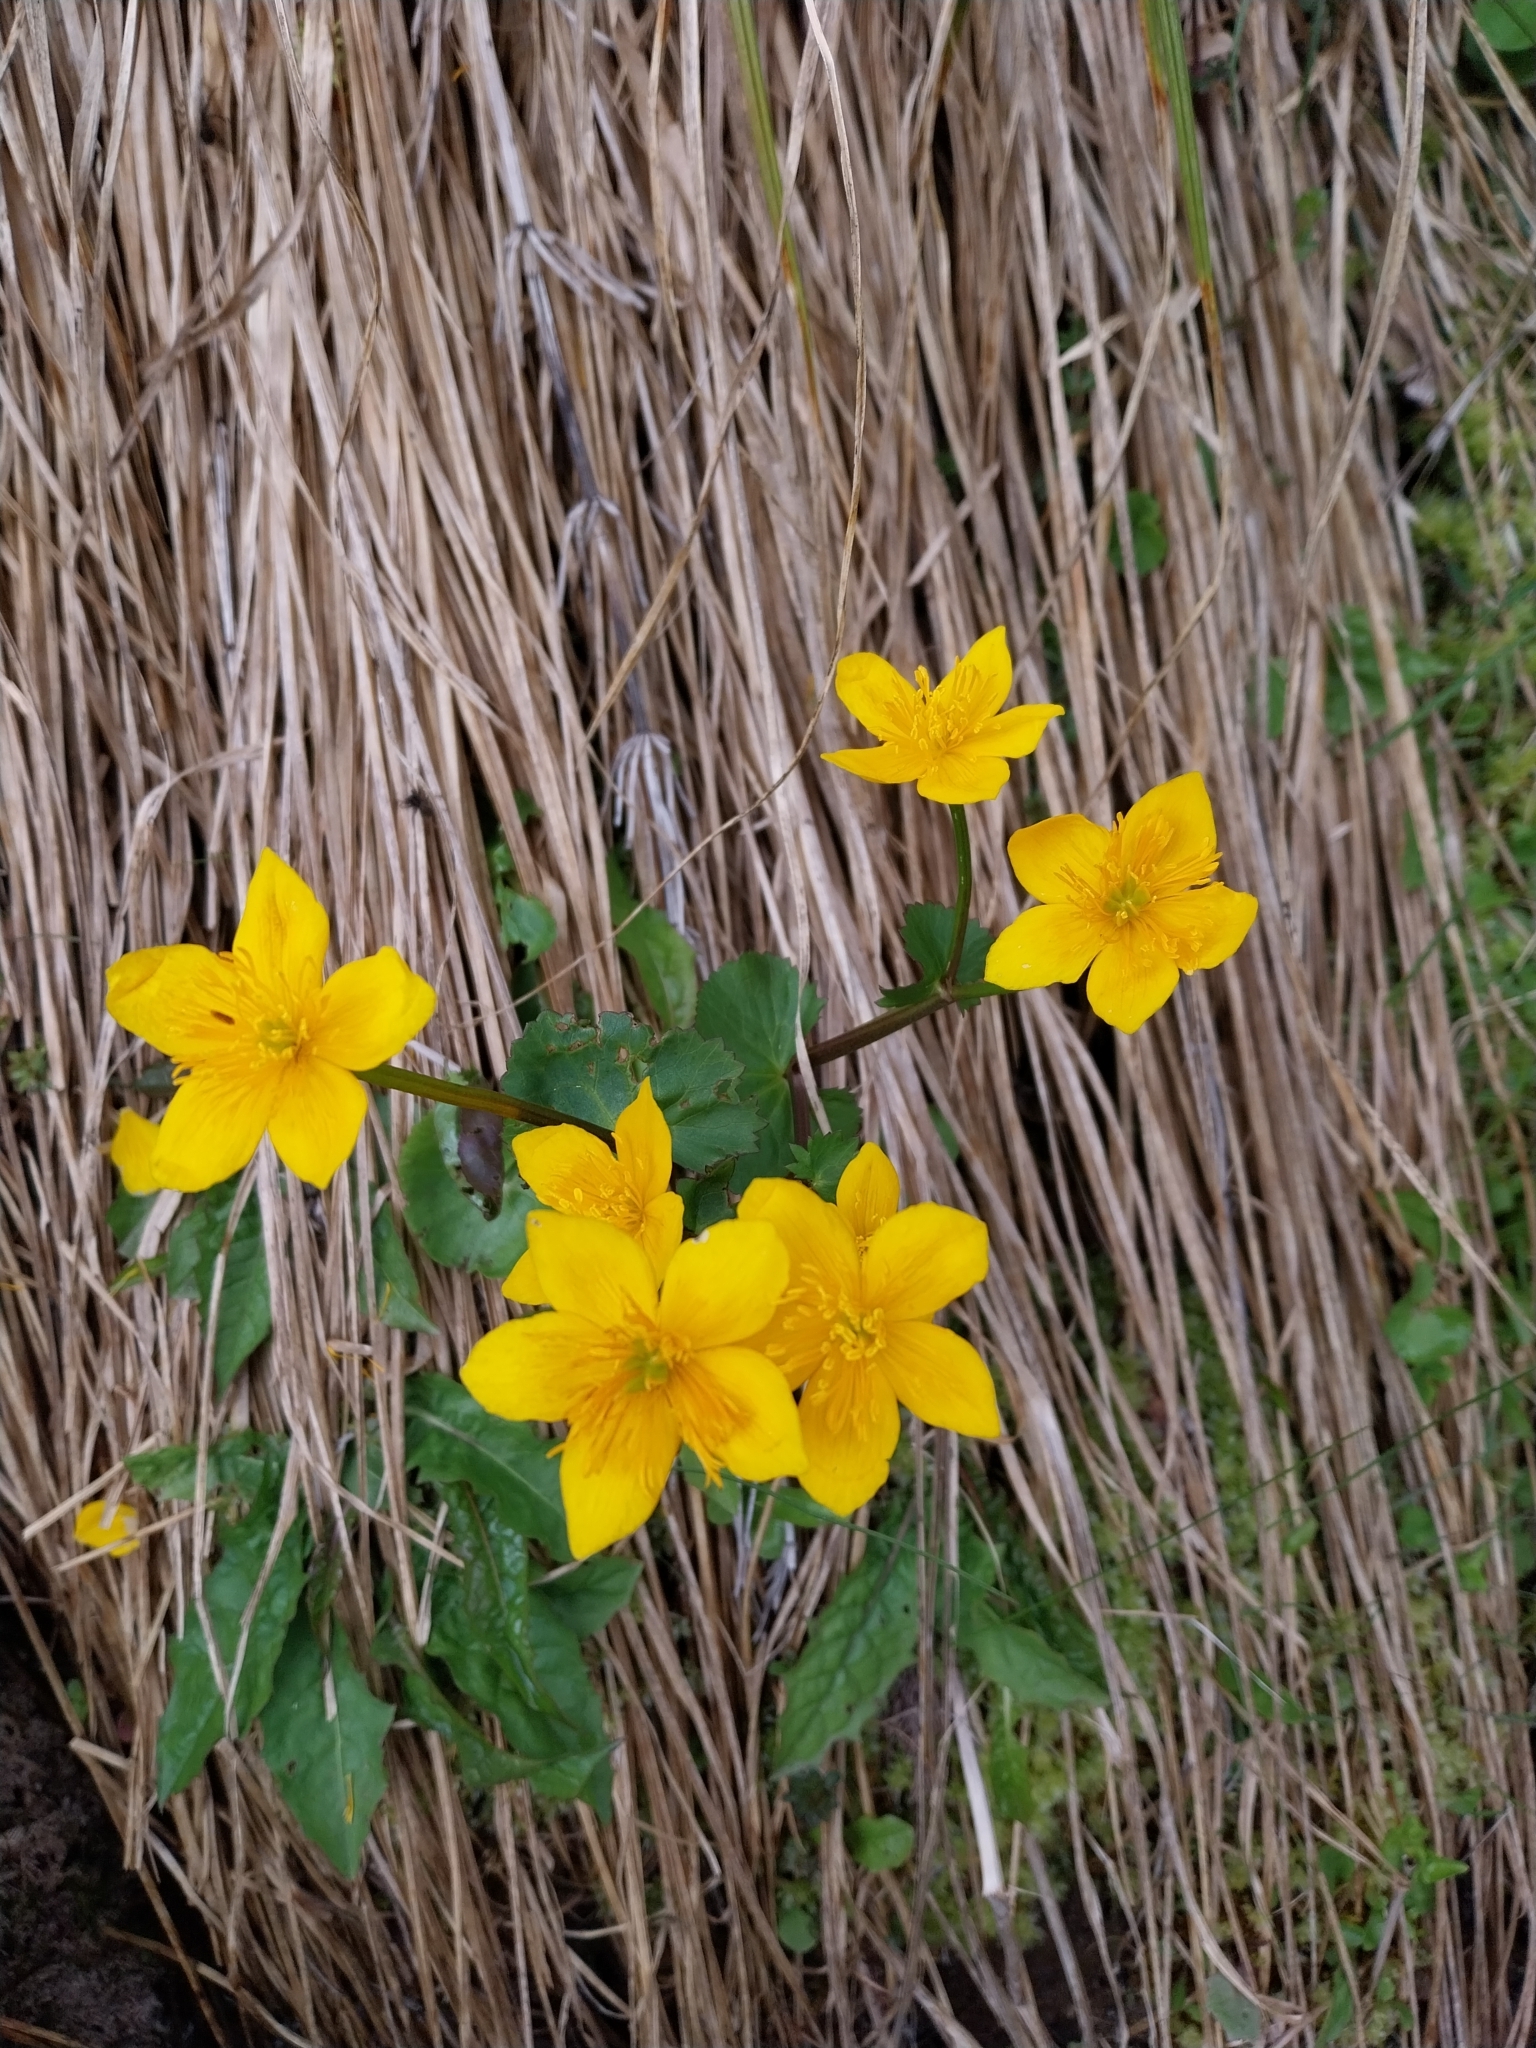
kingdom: Plantae
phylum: Tracheophyta
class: Magnoliopsida
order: Ranunculales
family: Ranunculaceae
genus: Caltha
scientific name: Caltha palustris
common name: Marsh marigold
